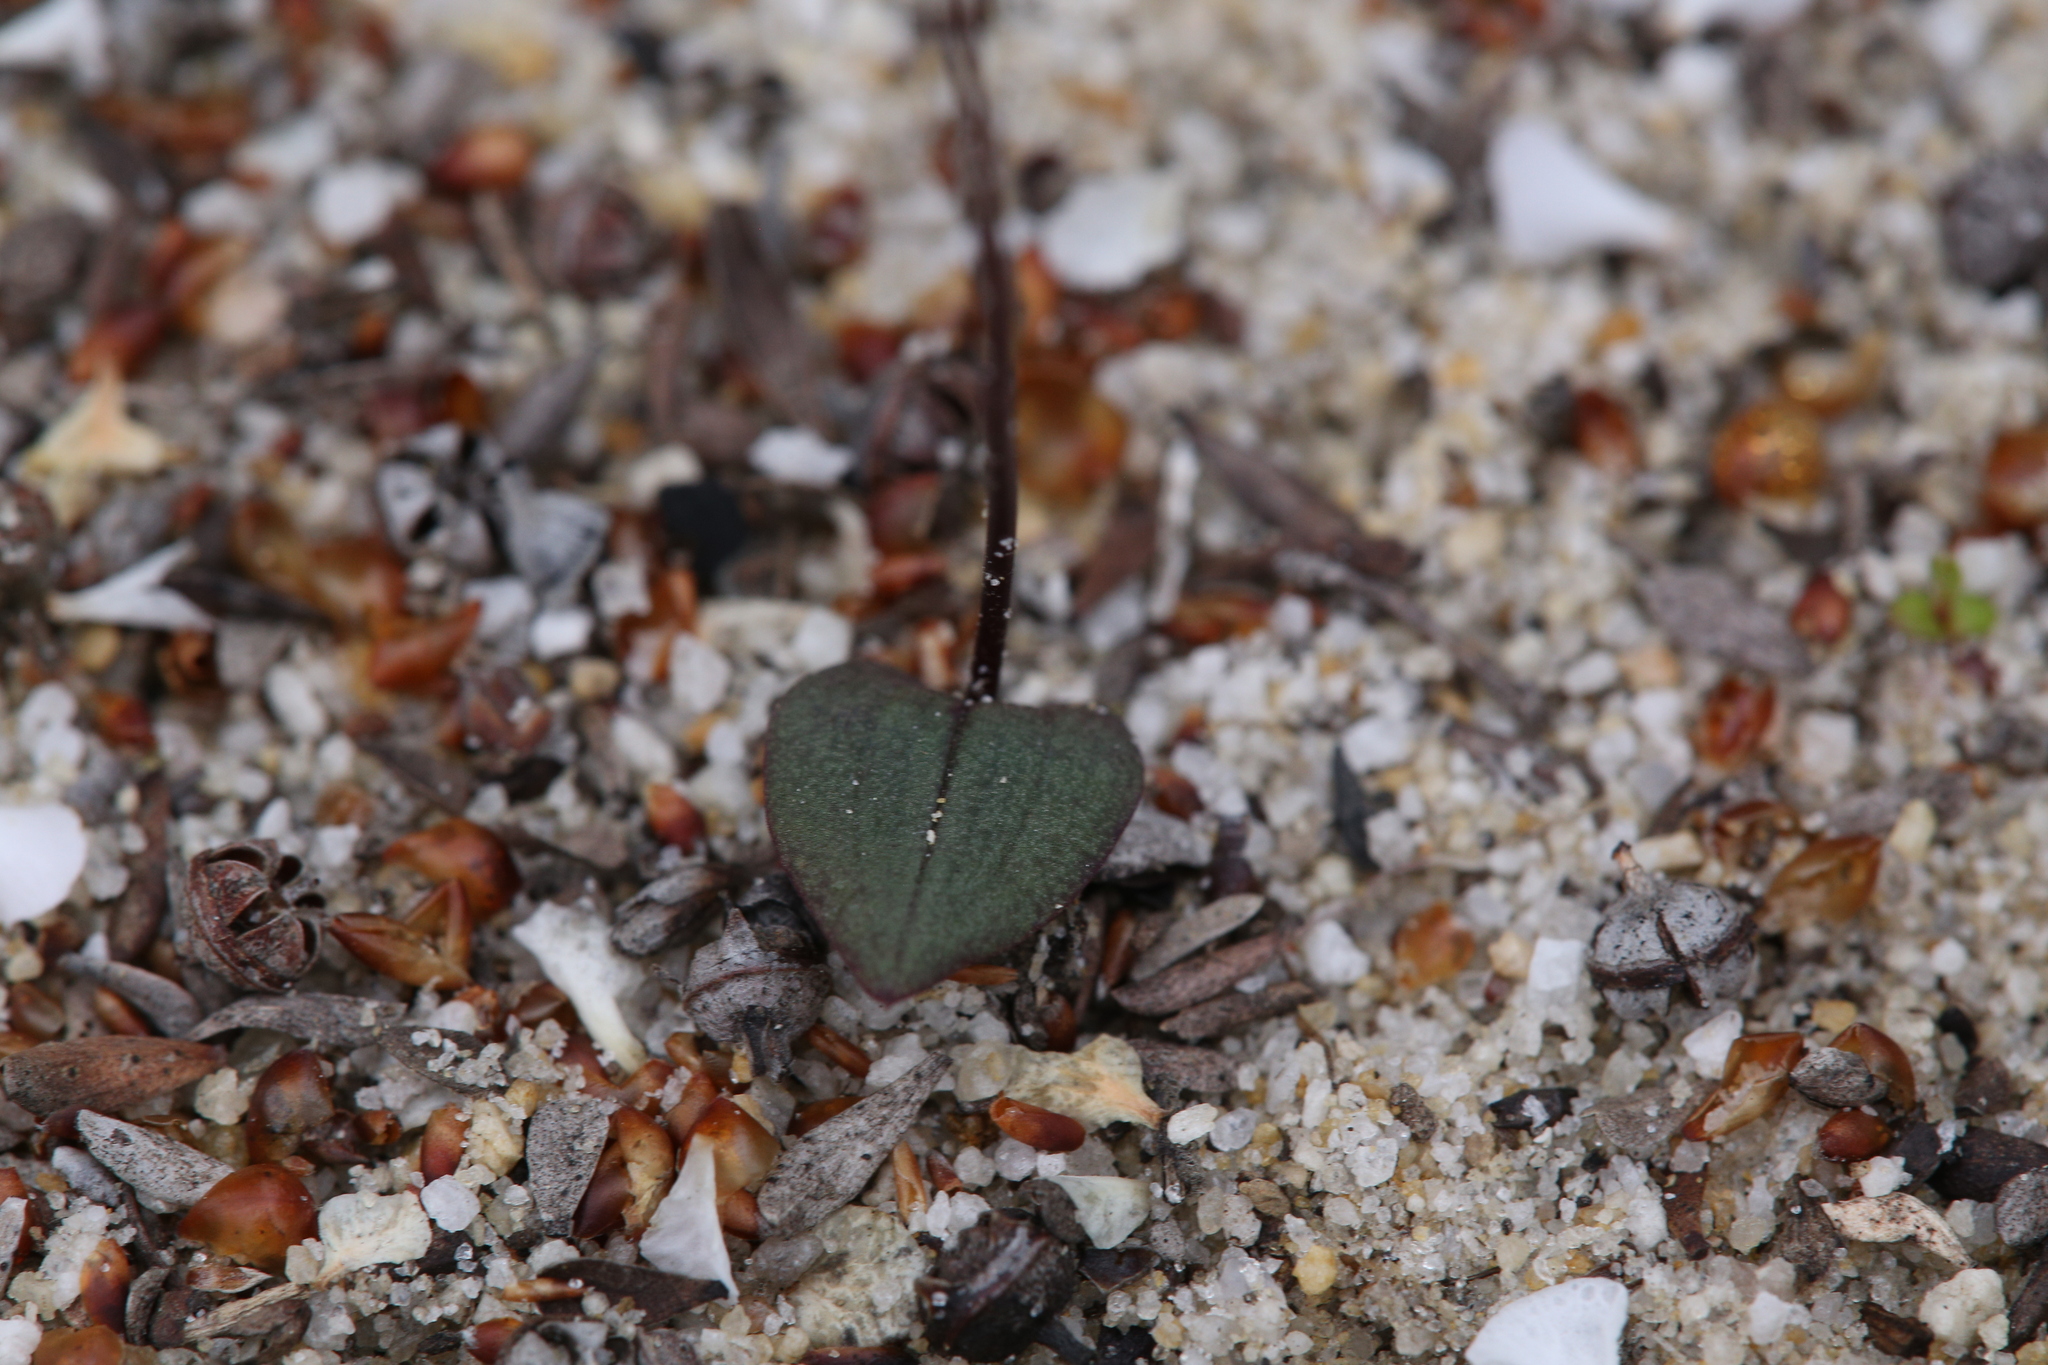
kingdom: Plantae
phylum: Tracheophyta
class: Liliopsida
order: Asparagales
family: Orchidaceae
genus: Caleana
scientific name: Caleana nigrita
